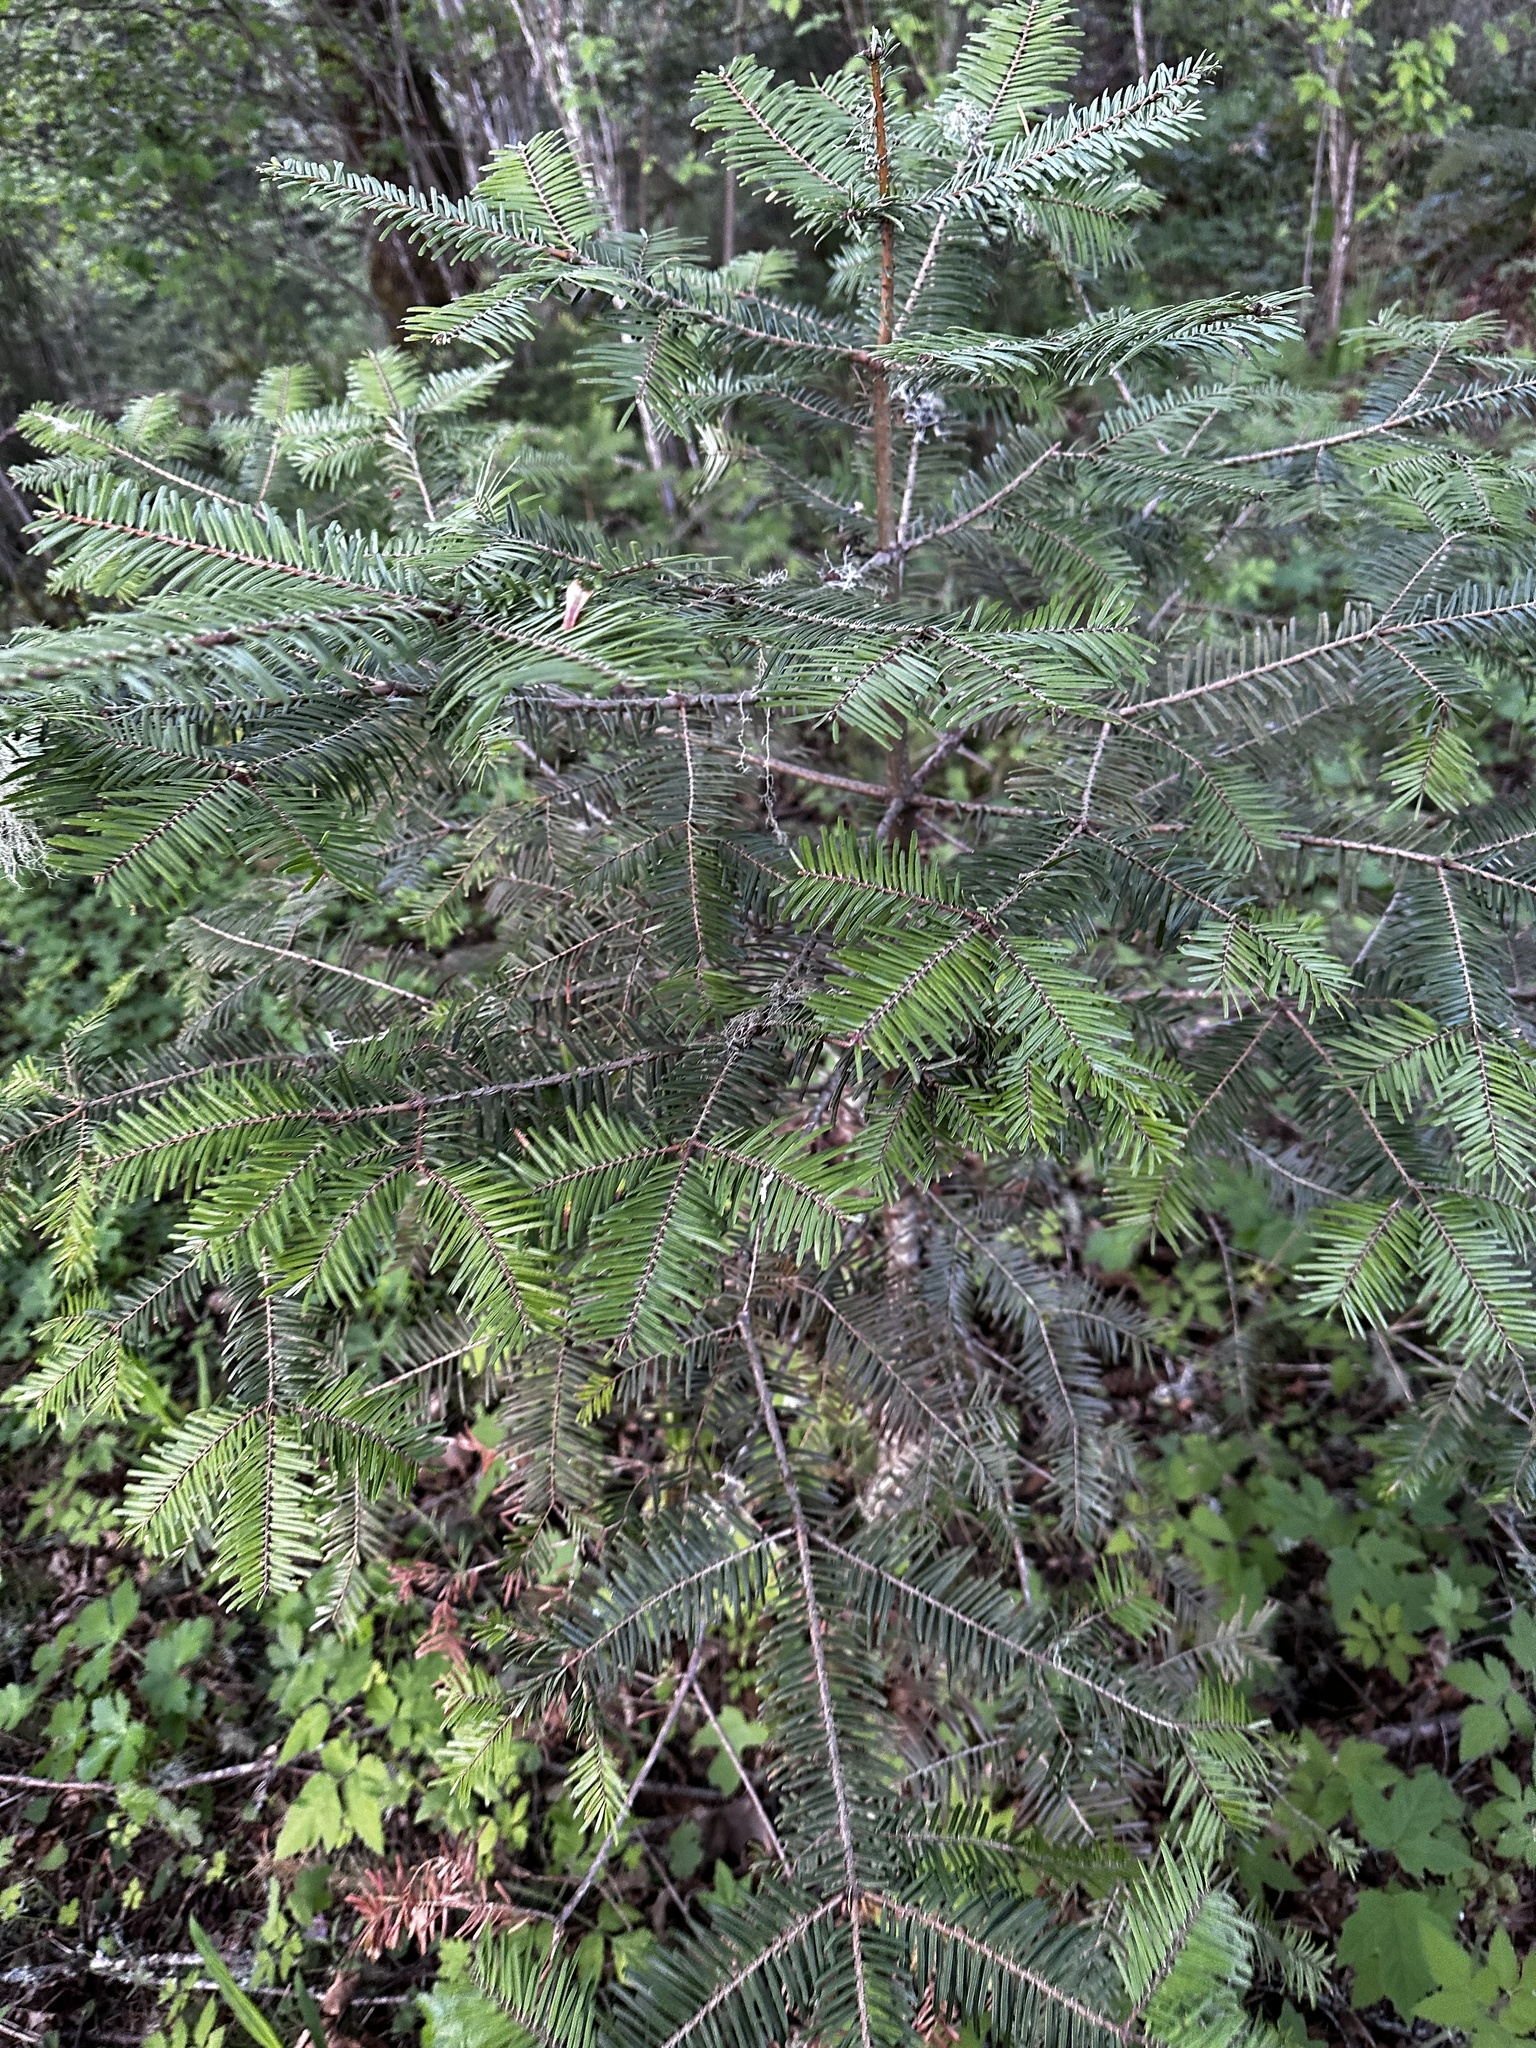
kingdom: Plantae
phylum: Tracheophyta
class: Pinopsida
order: Pinales
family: Pinaceae
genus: Abies
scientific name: Abies grandis
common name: Giant fir
